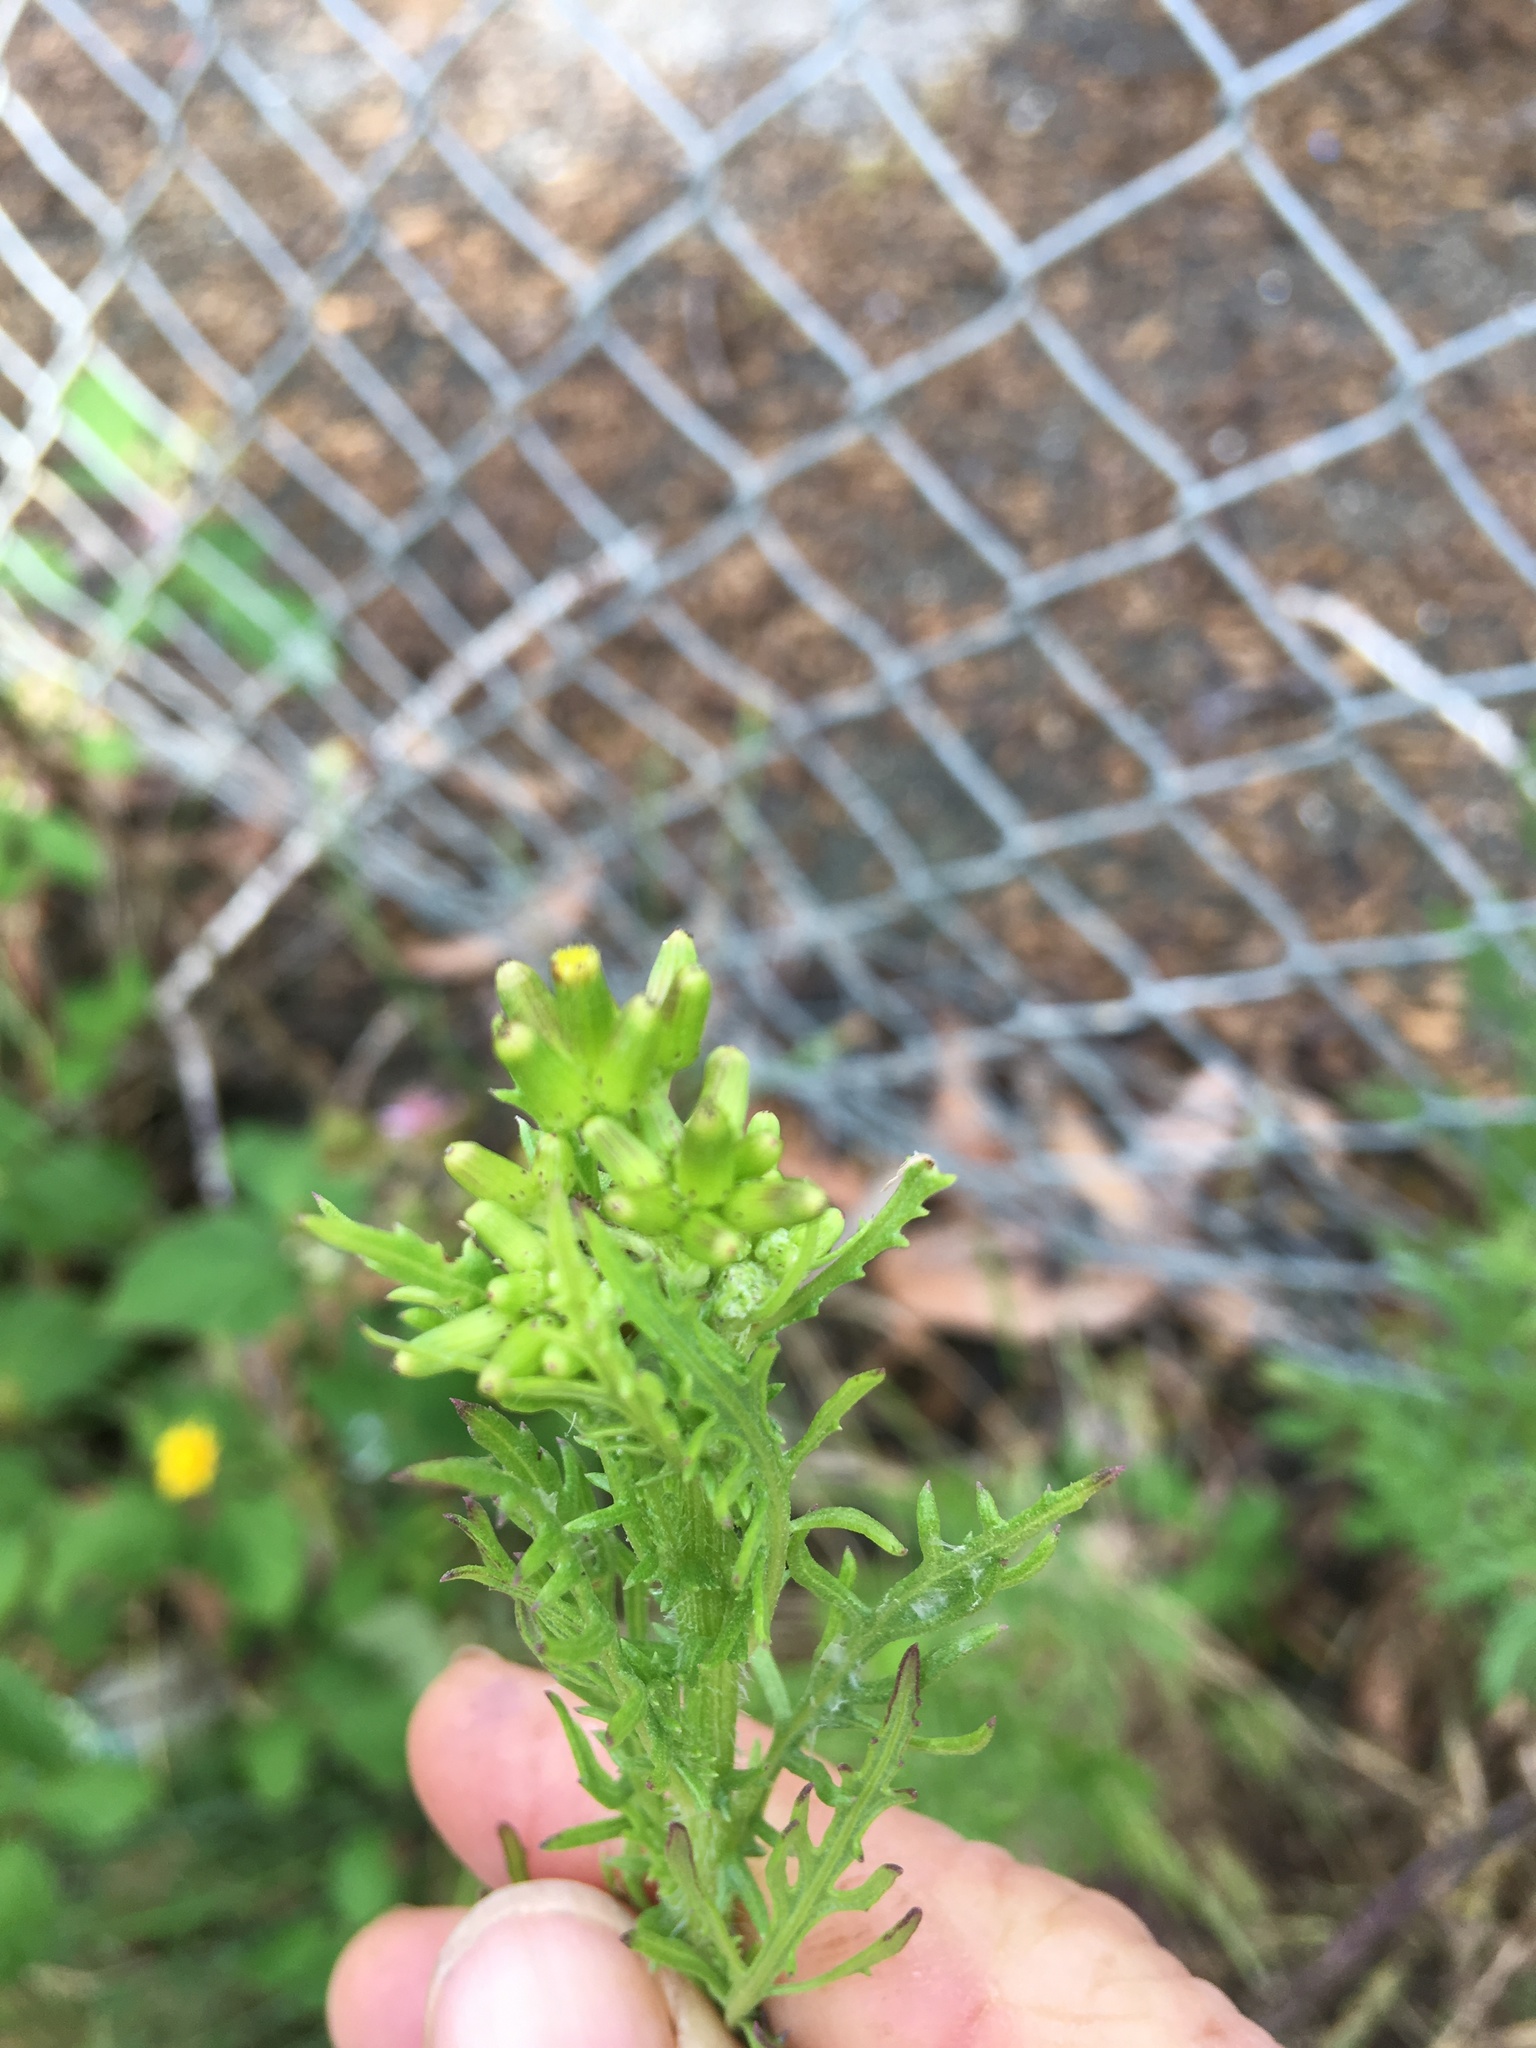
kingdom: Plantae
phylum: Tracheophyta
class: Magnoliopsida
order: Asterales
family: Asteraceae
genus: Senecio
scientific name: Senecio esleri
